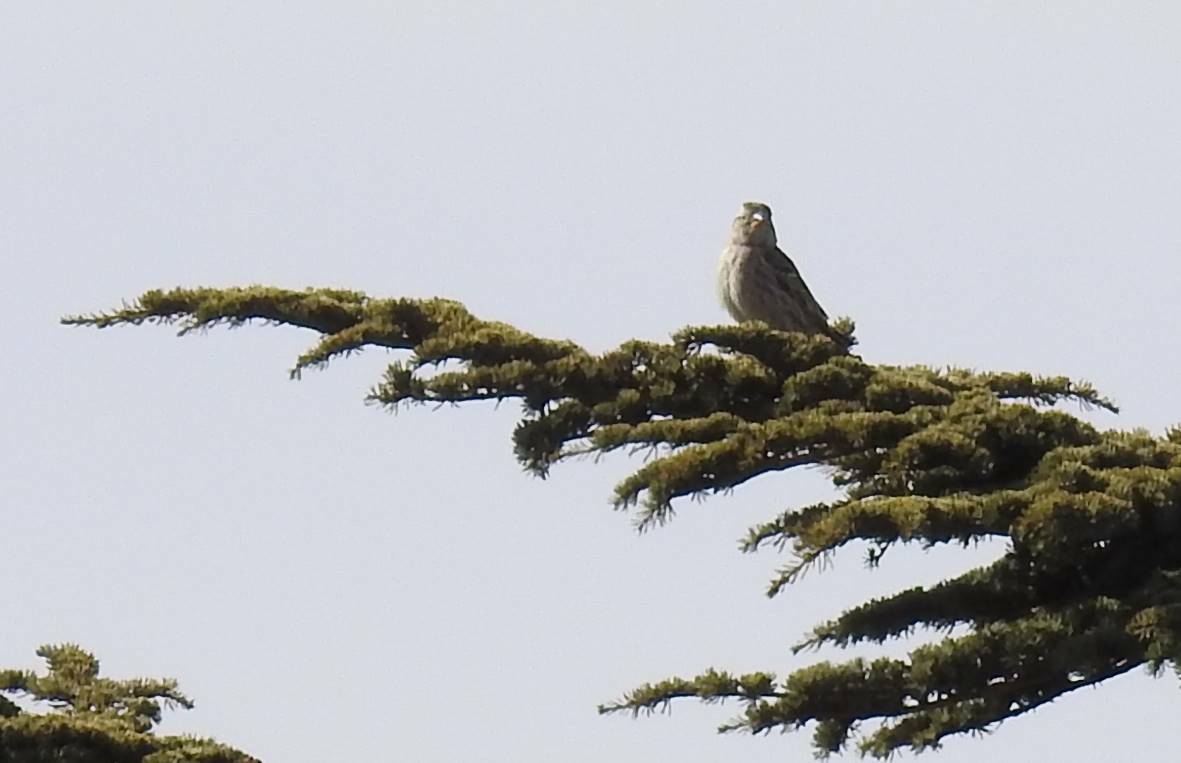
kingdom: Animalia
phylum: Chordata
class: Aves
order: Passeriformes
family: Passeridae
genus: Petronia
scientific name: Petronia petronia
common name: Rock sparrow
